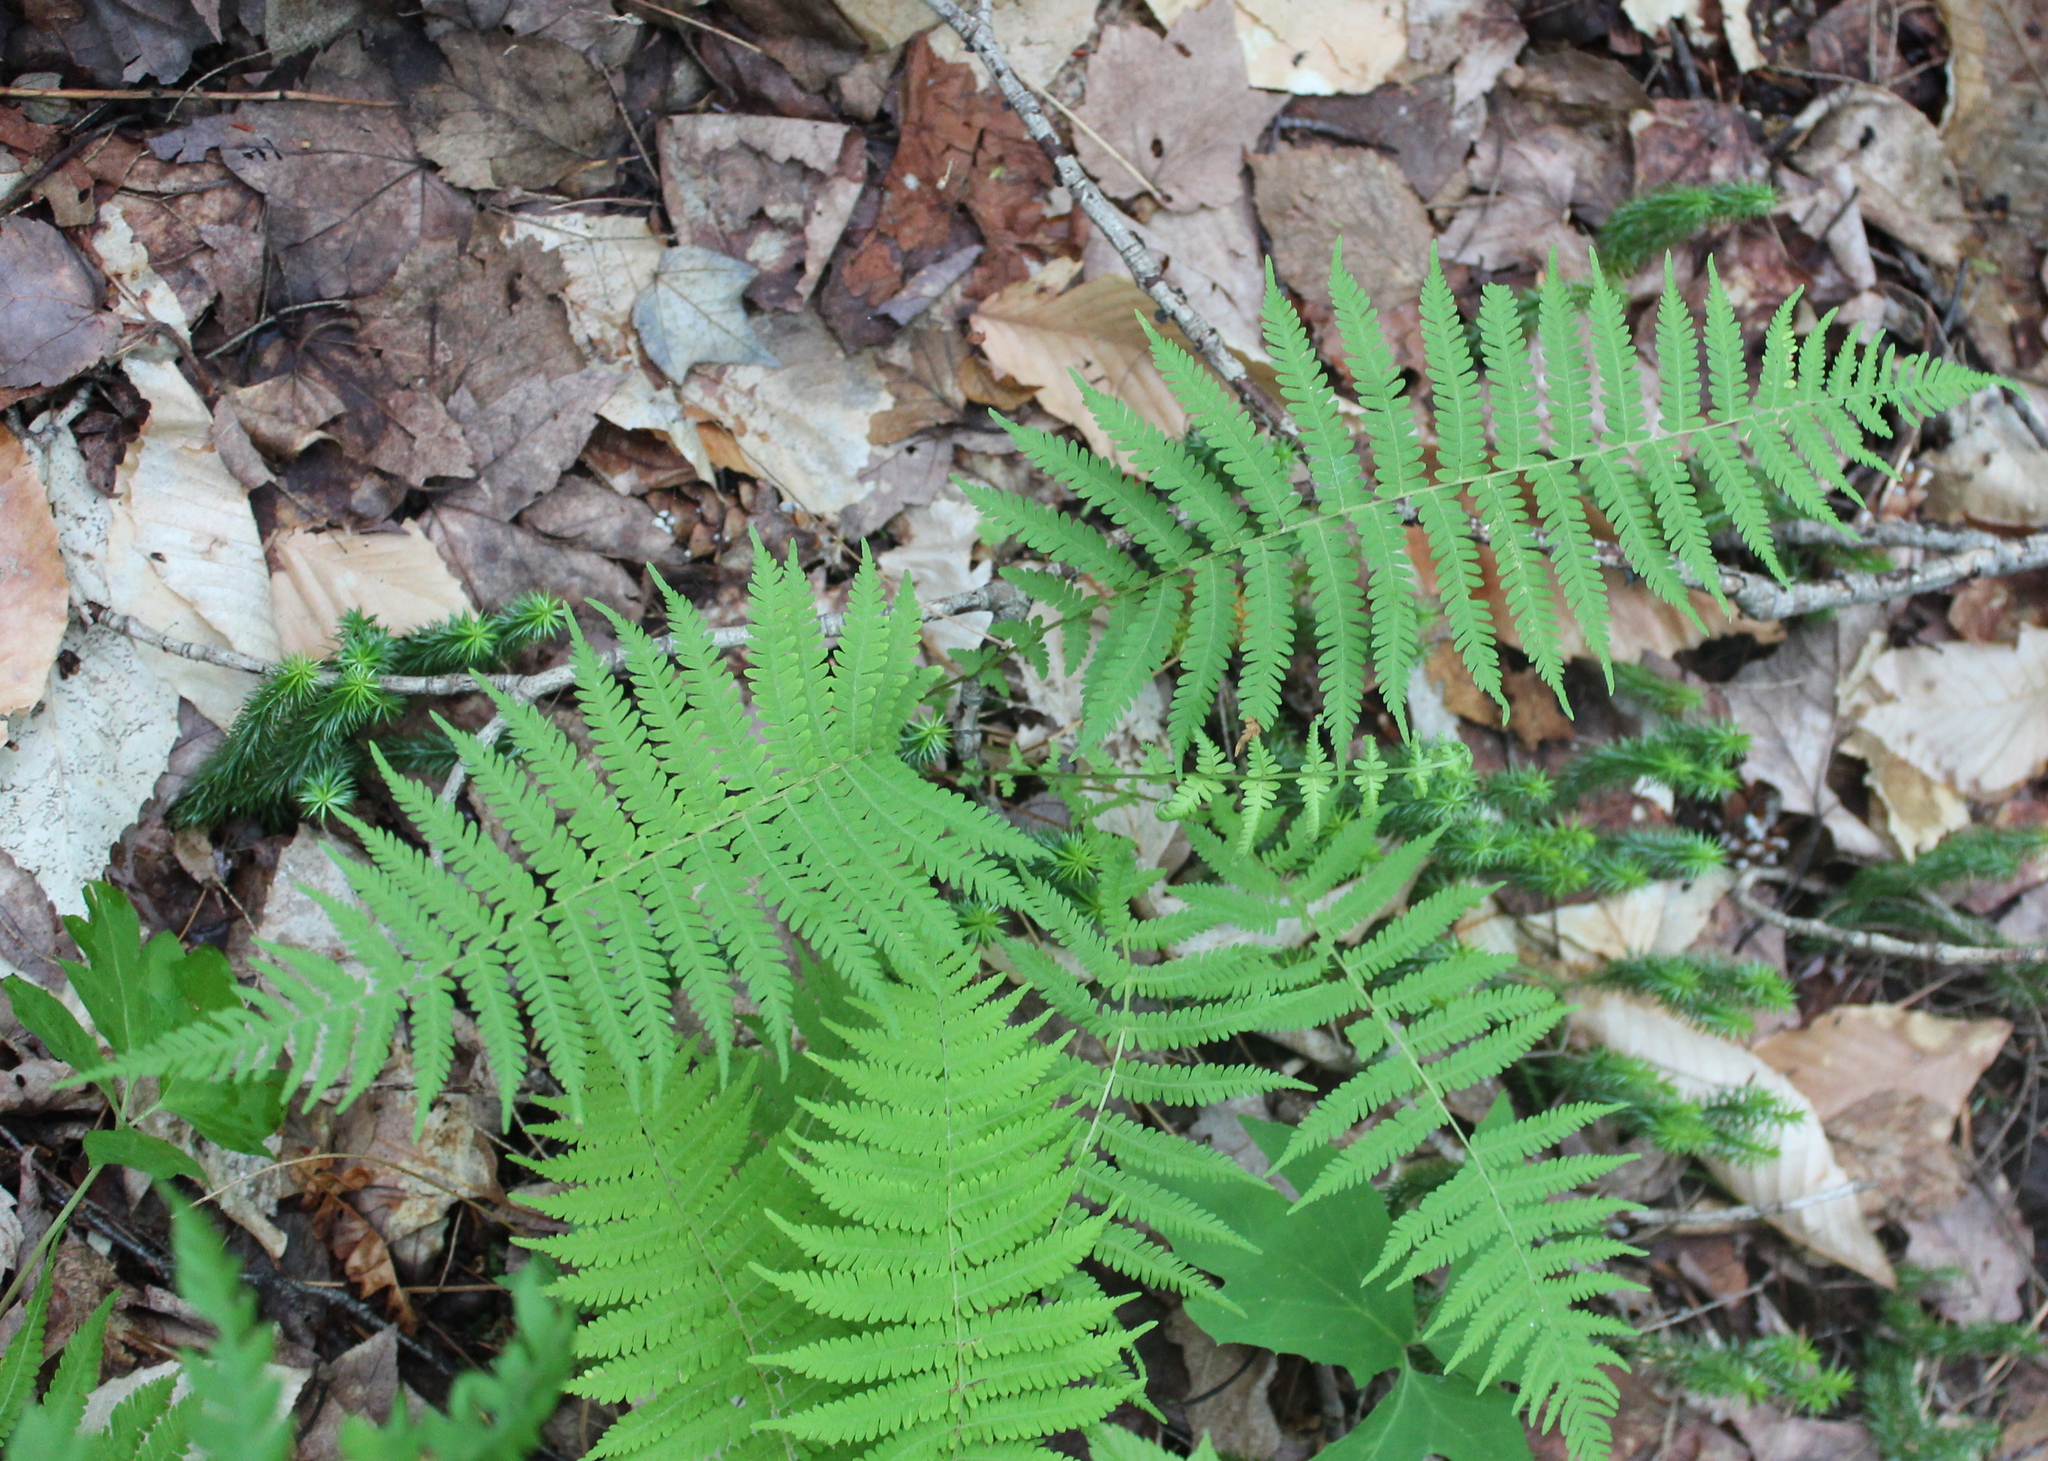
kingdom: Plantae
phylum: Tracheophyta
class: Polypodiopsida
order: Polypodiales
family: Thelypteridaceae
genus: Amauropelta
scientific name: Amauropelta noveboracensis
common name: New york fern
